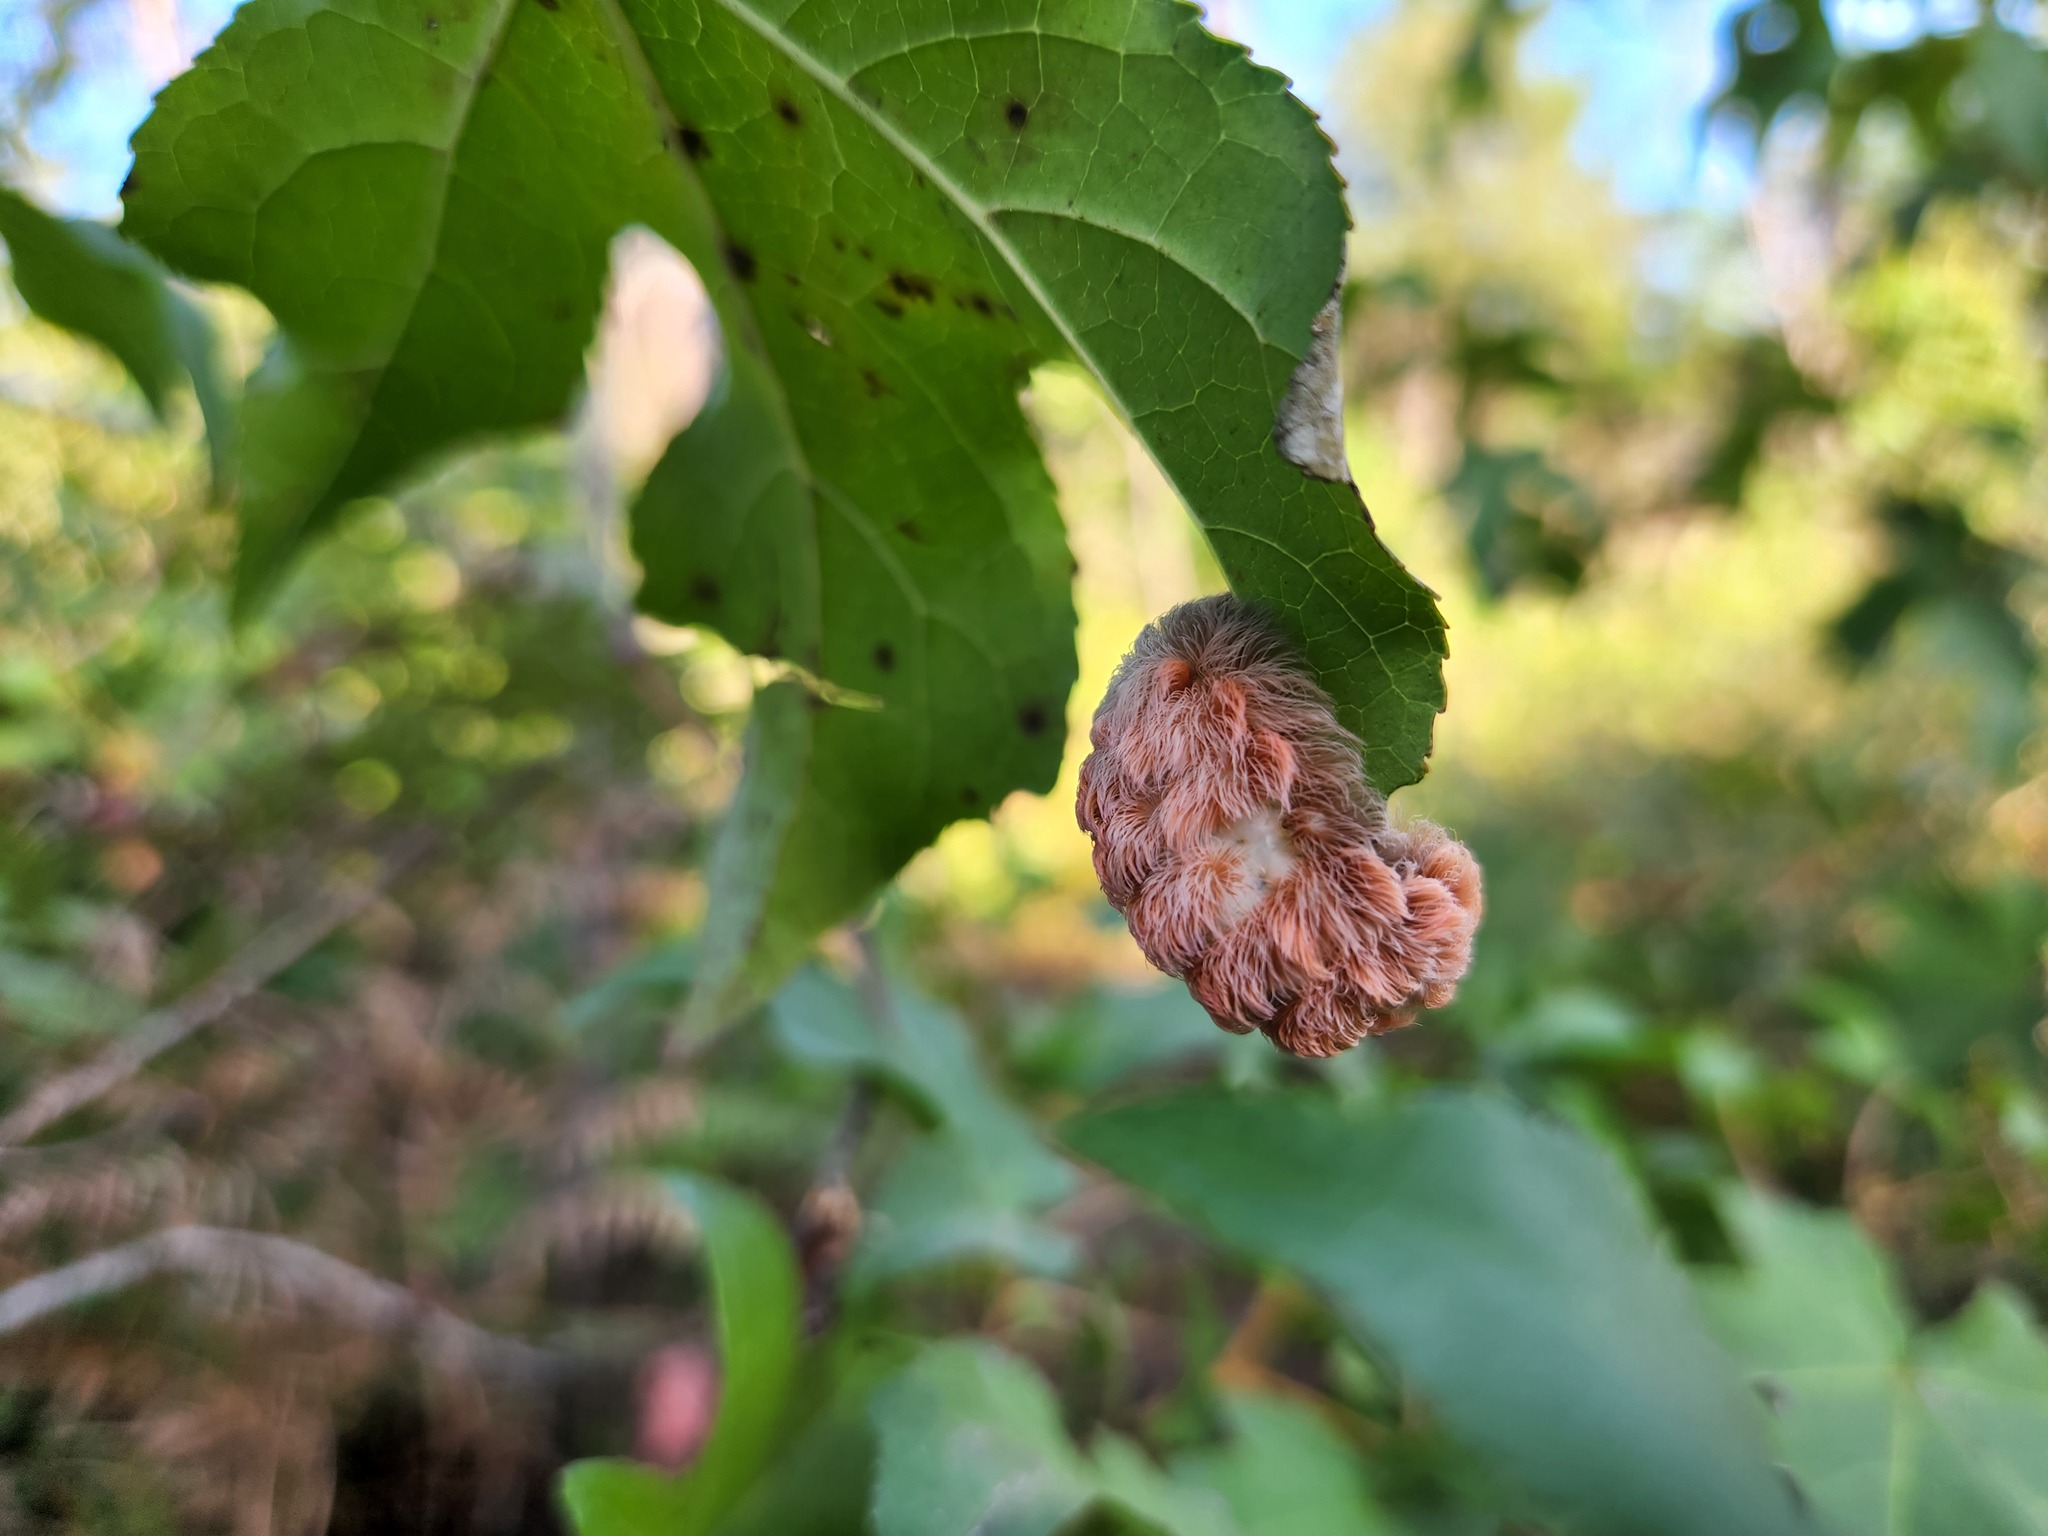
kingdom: Animalia
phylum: Arthropoda
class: Insecta
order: Lepidoptera
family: Megalopygidae
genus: Megalopyge
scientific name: Megalopyge crispata
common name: Black-waved flannel moth
